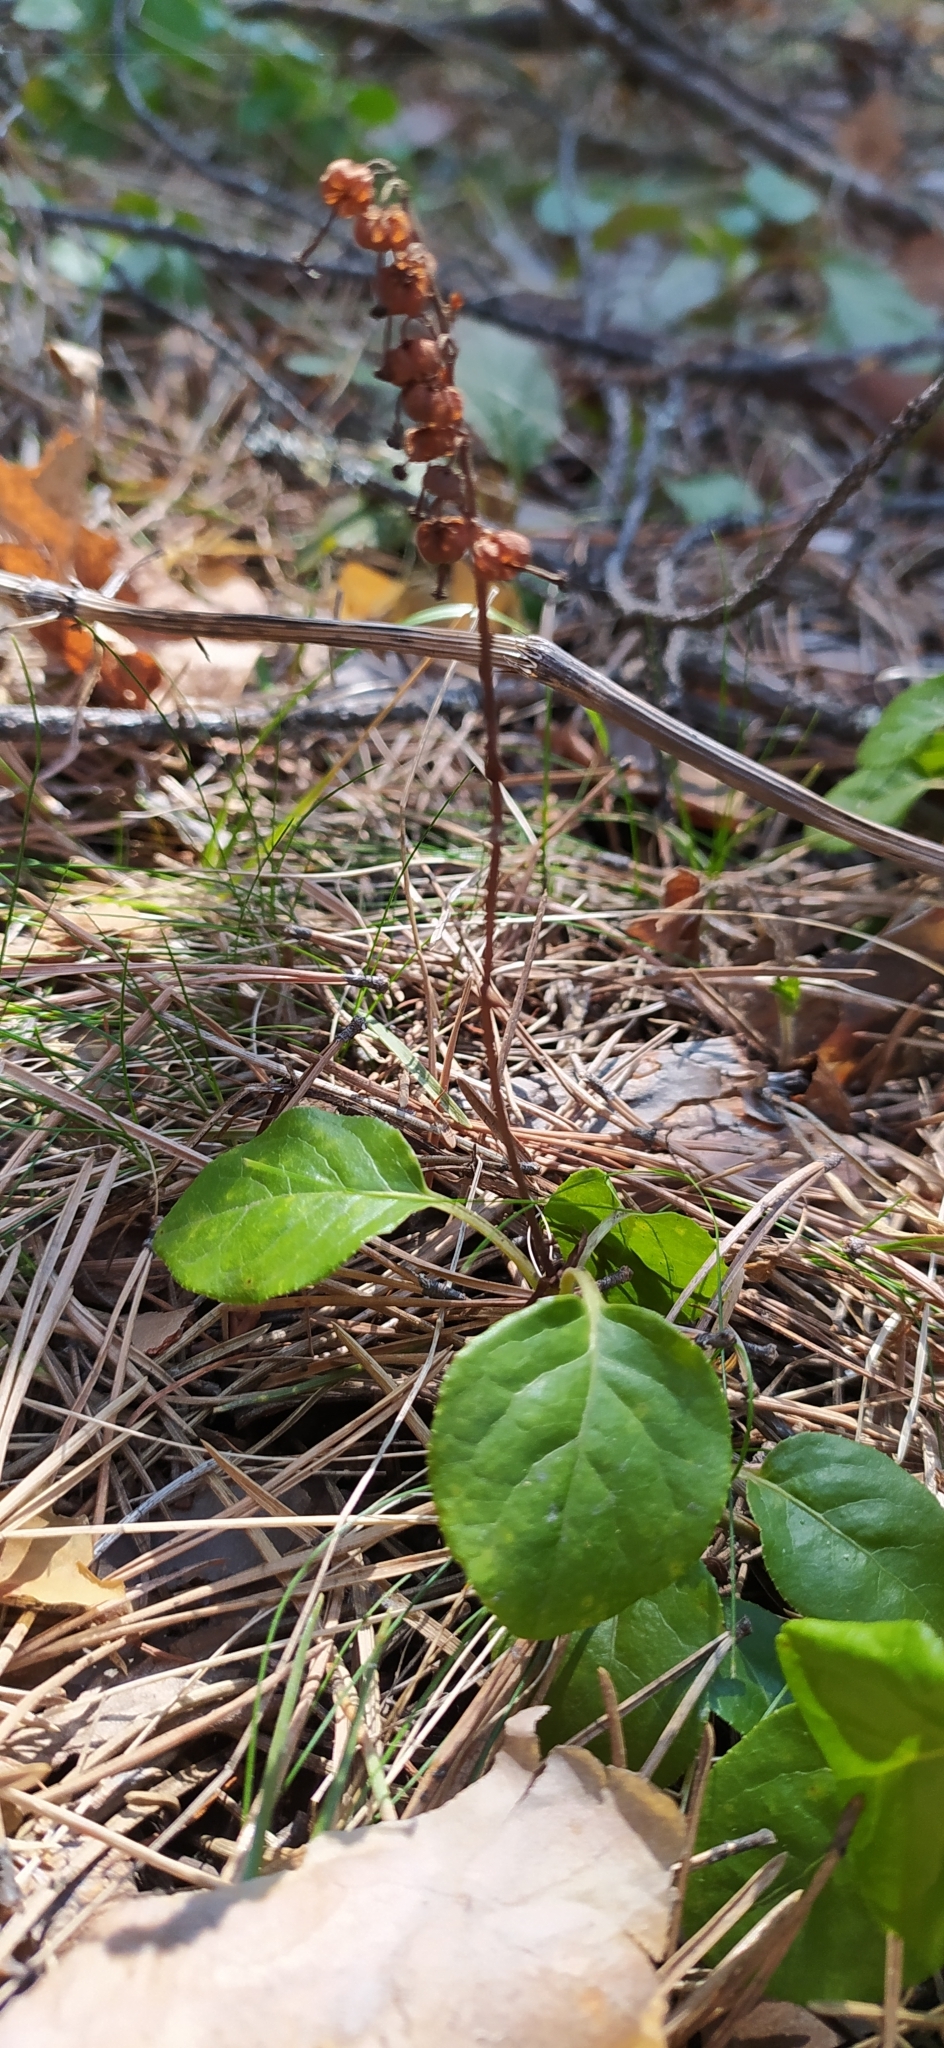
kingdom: Plantae
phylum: Tracheophyta
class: Magnoliopsida
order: Ericales
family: Ericaceae
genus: Orthilia
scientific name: Orthilia secunda
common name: One-sided orthilia
